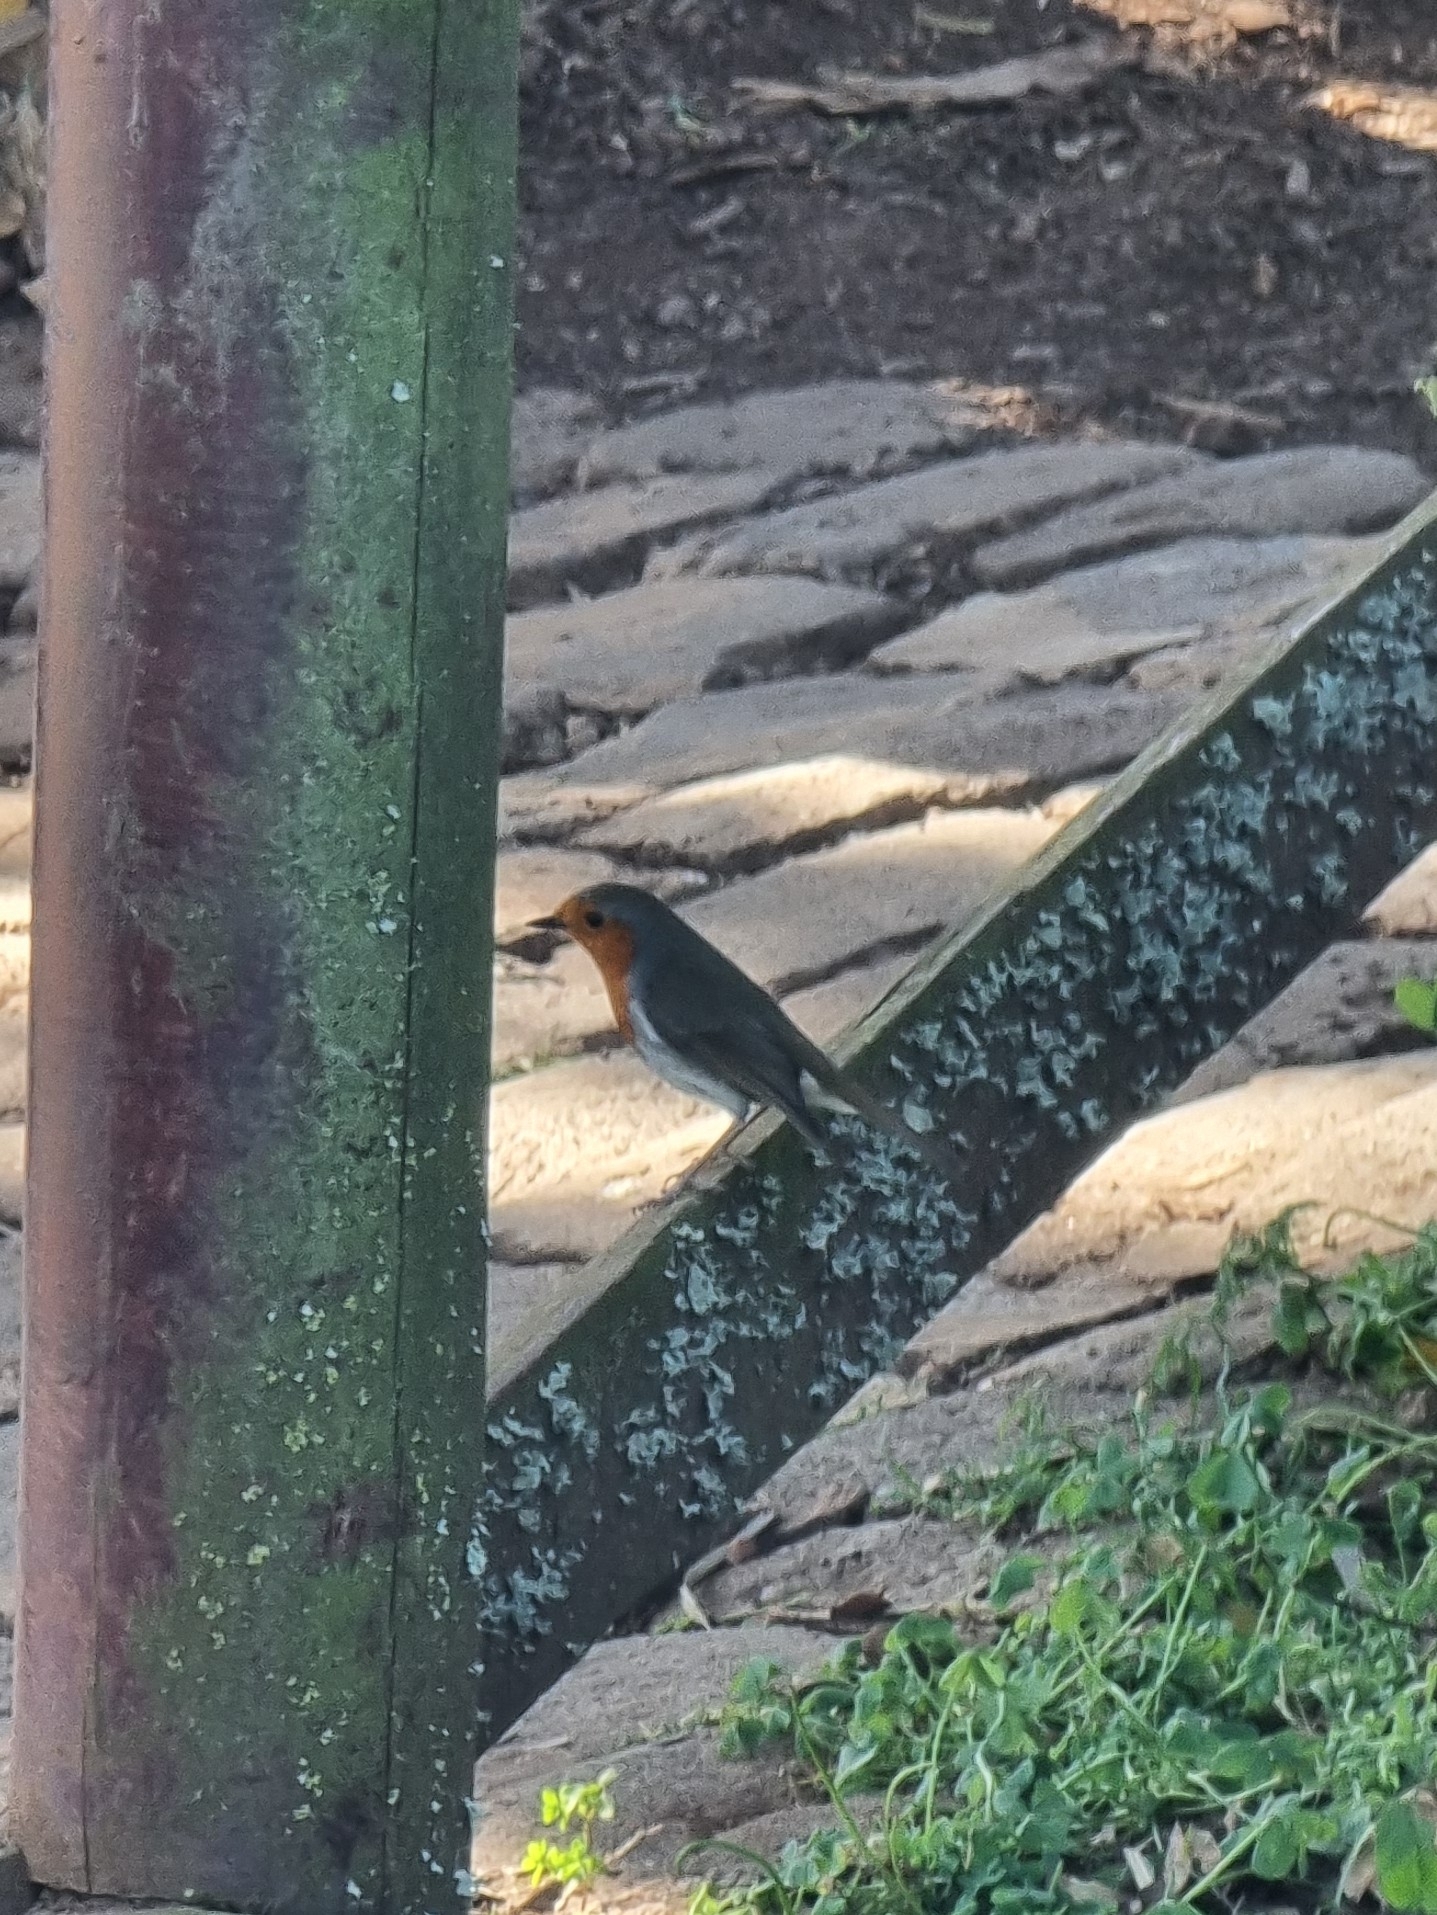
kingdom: Animalia
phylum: Chordata
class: Aves
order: Passeriformes
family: Muscicapidae
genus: Erithacus
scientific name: Erithacus rubecula
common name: European robin
